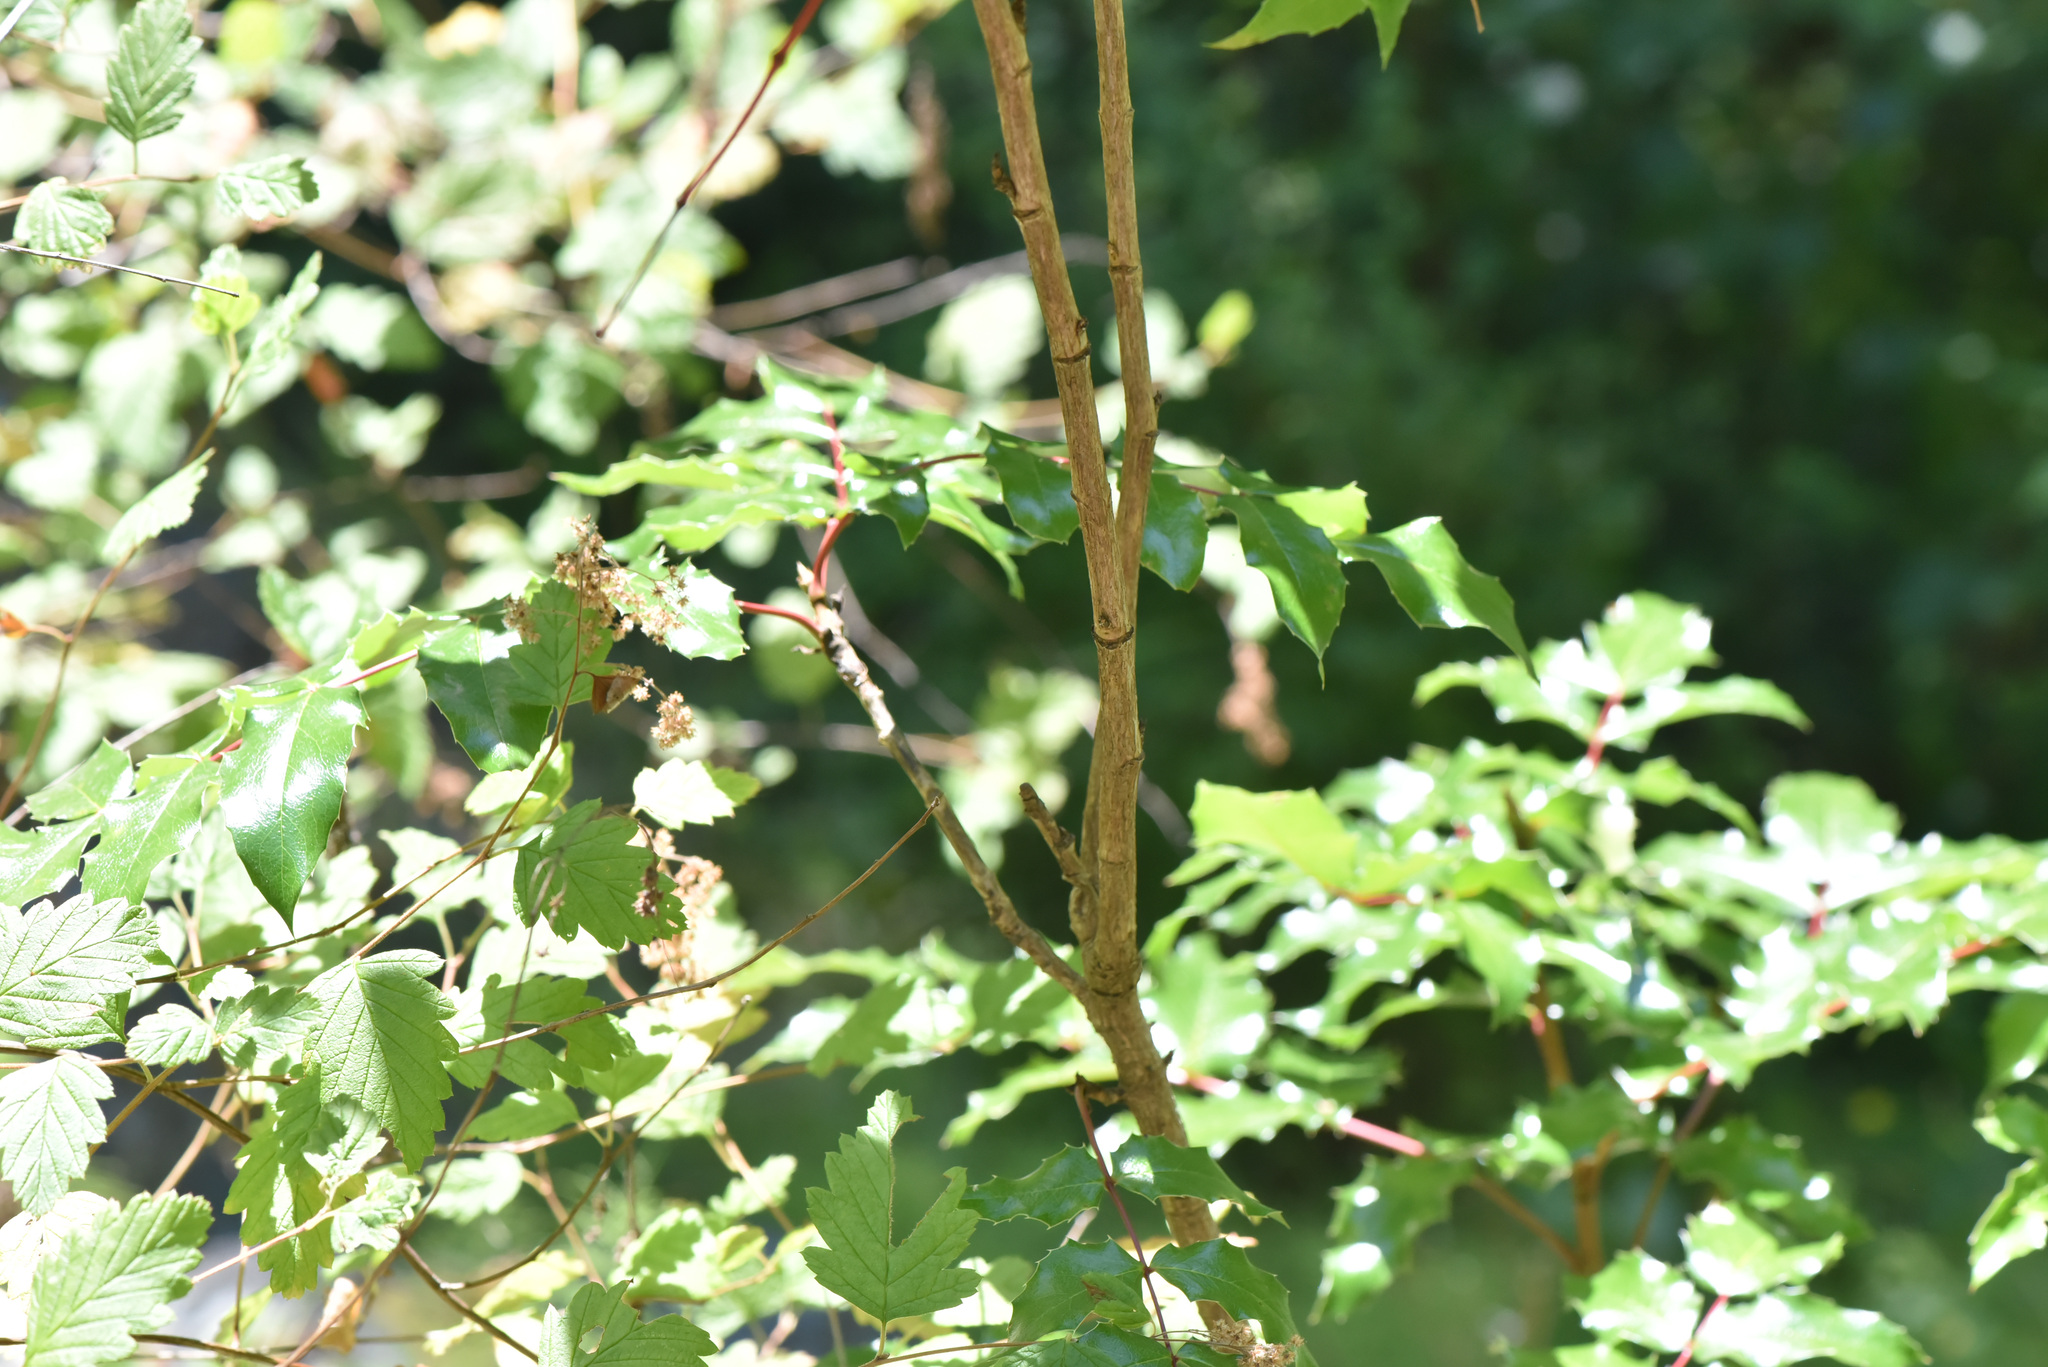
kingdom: Plantae
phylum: Tracheophyta
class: Magnoliopsida
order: Ranunculales
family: Berberidaceae
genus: Mahonia
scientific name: Mahonia aquifolium
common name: Oregon-grape
